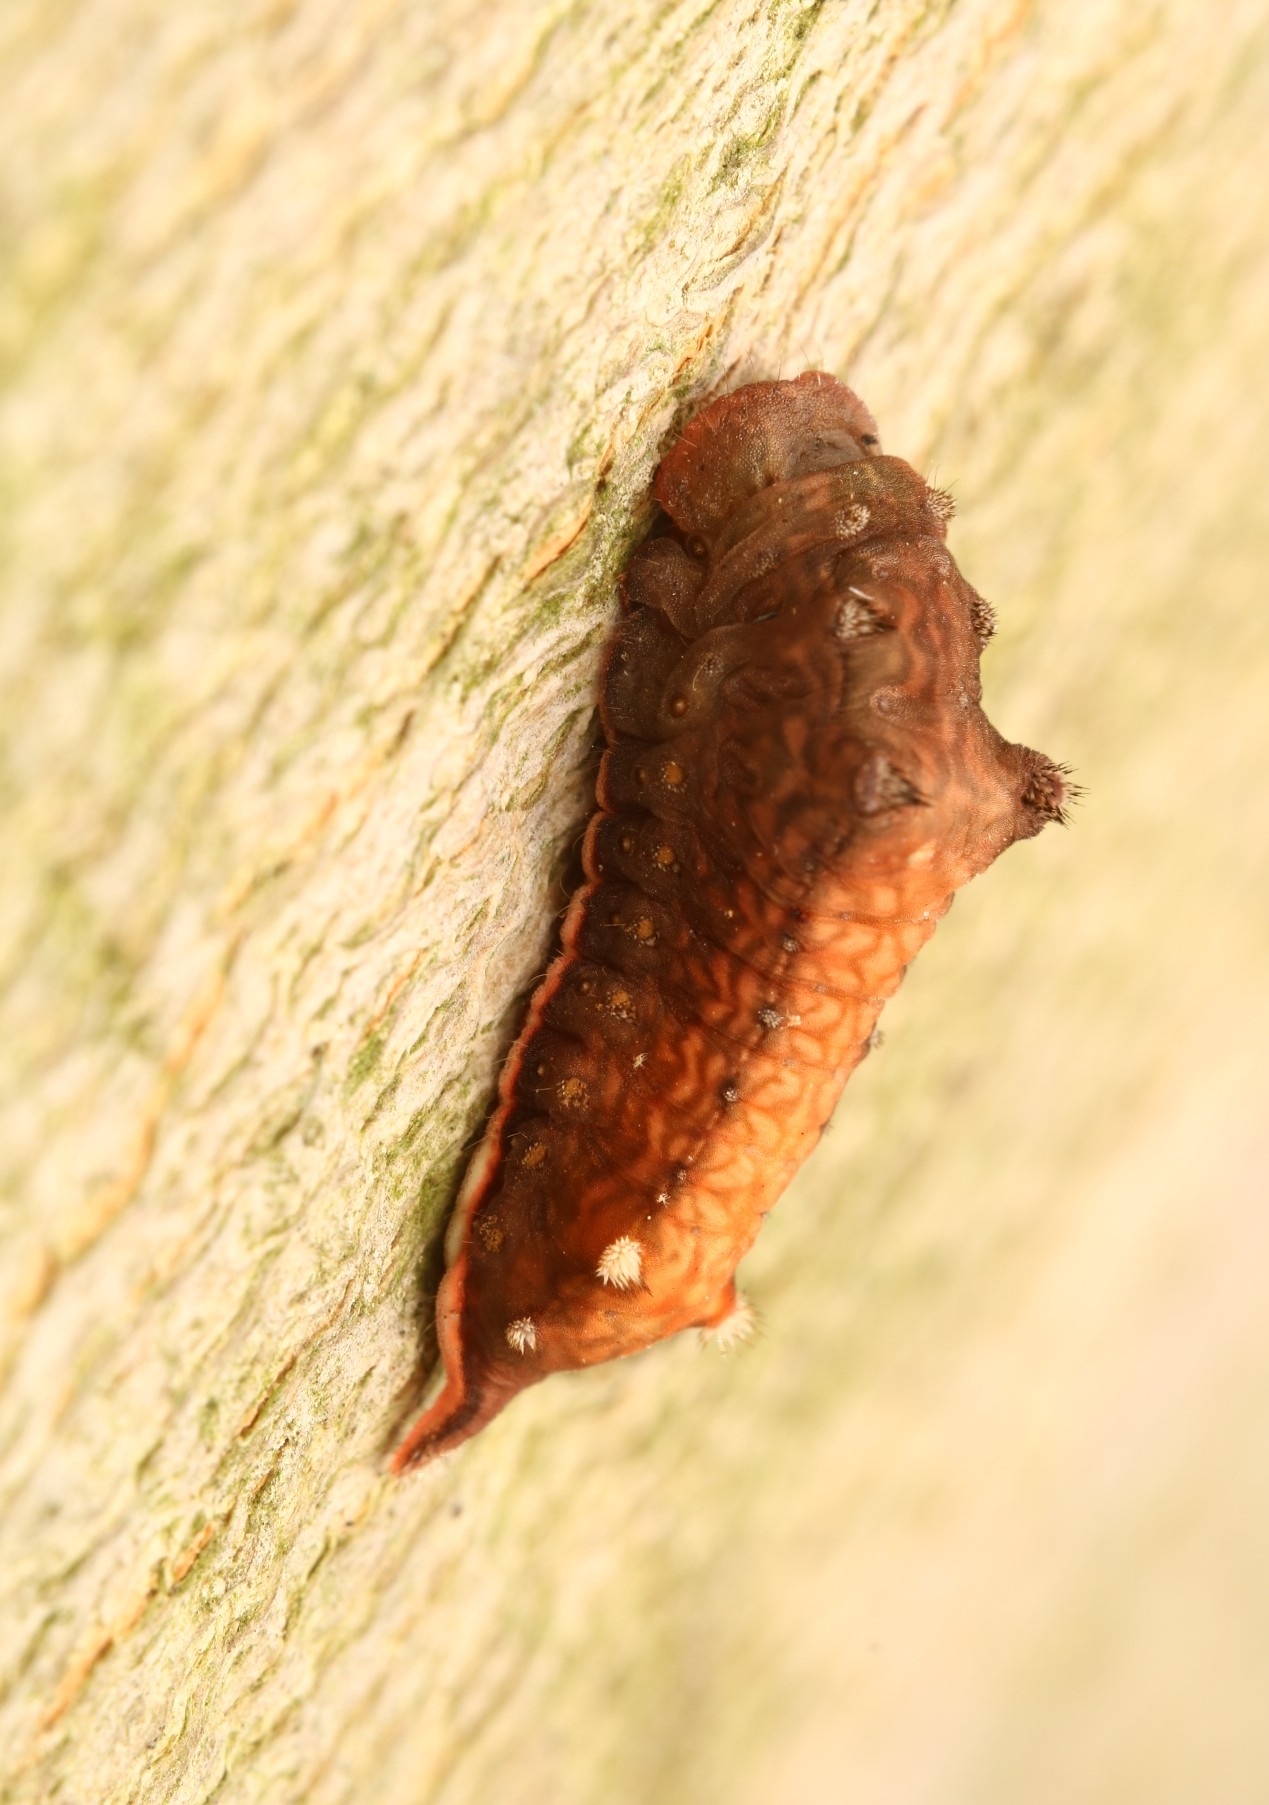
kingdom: Animalia
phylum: Arthropoda
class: Insecta
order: Lepidoptera
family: Limacodidae
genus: Parasa
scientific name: Parasa chloris
